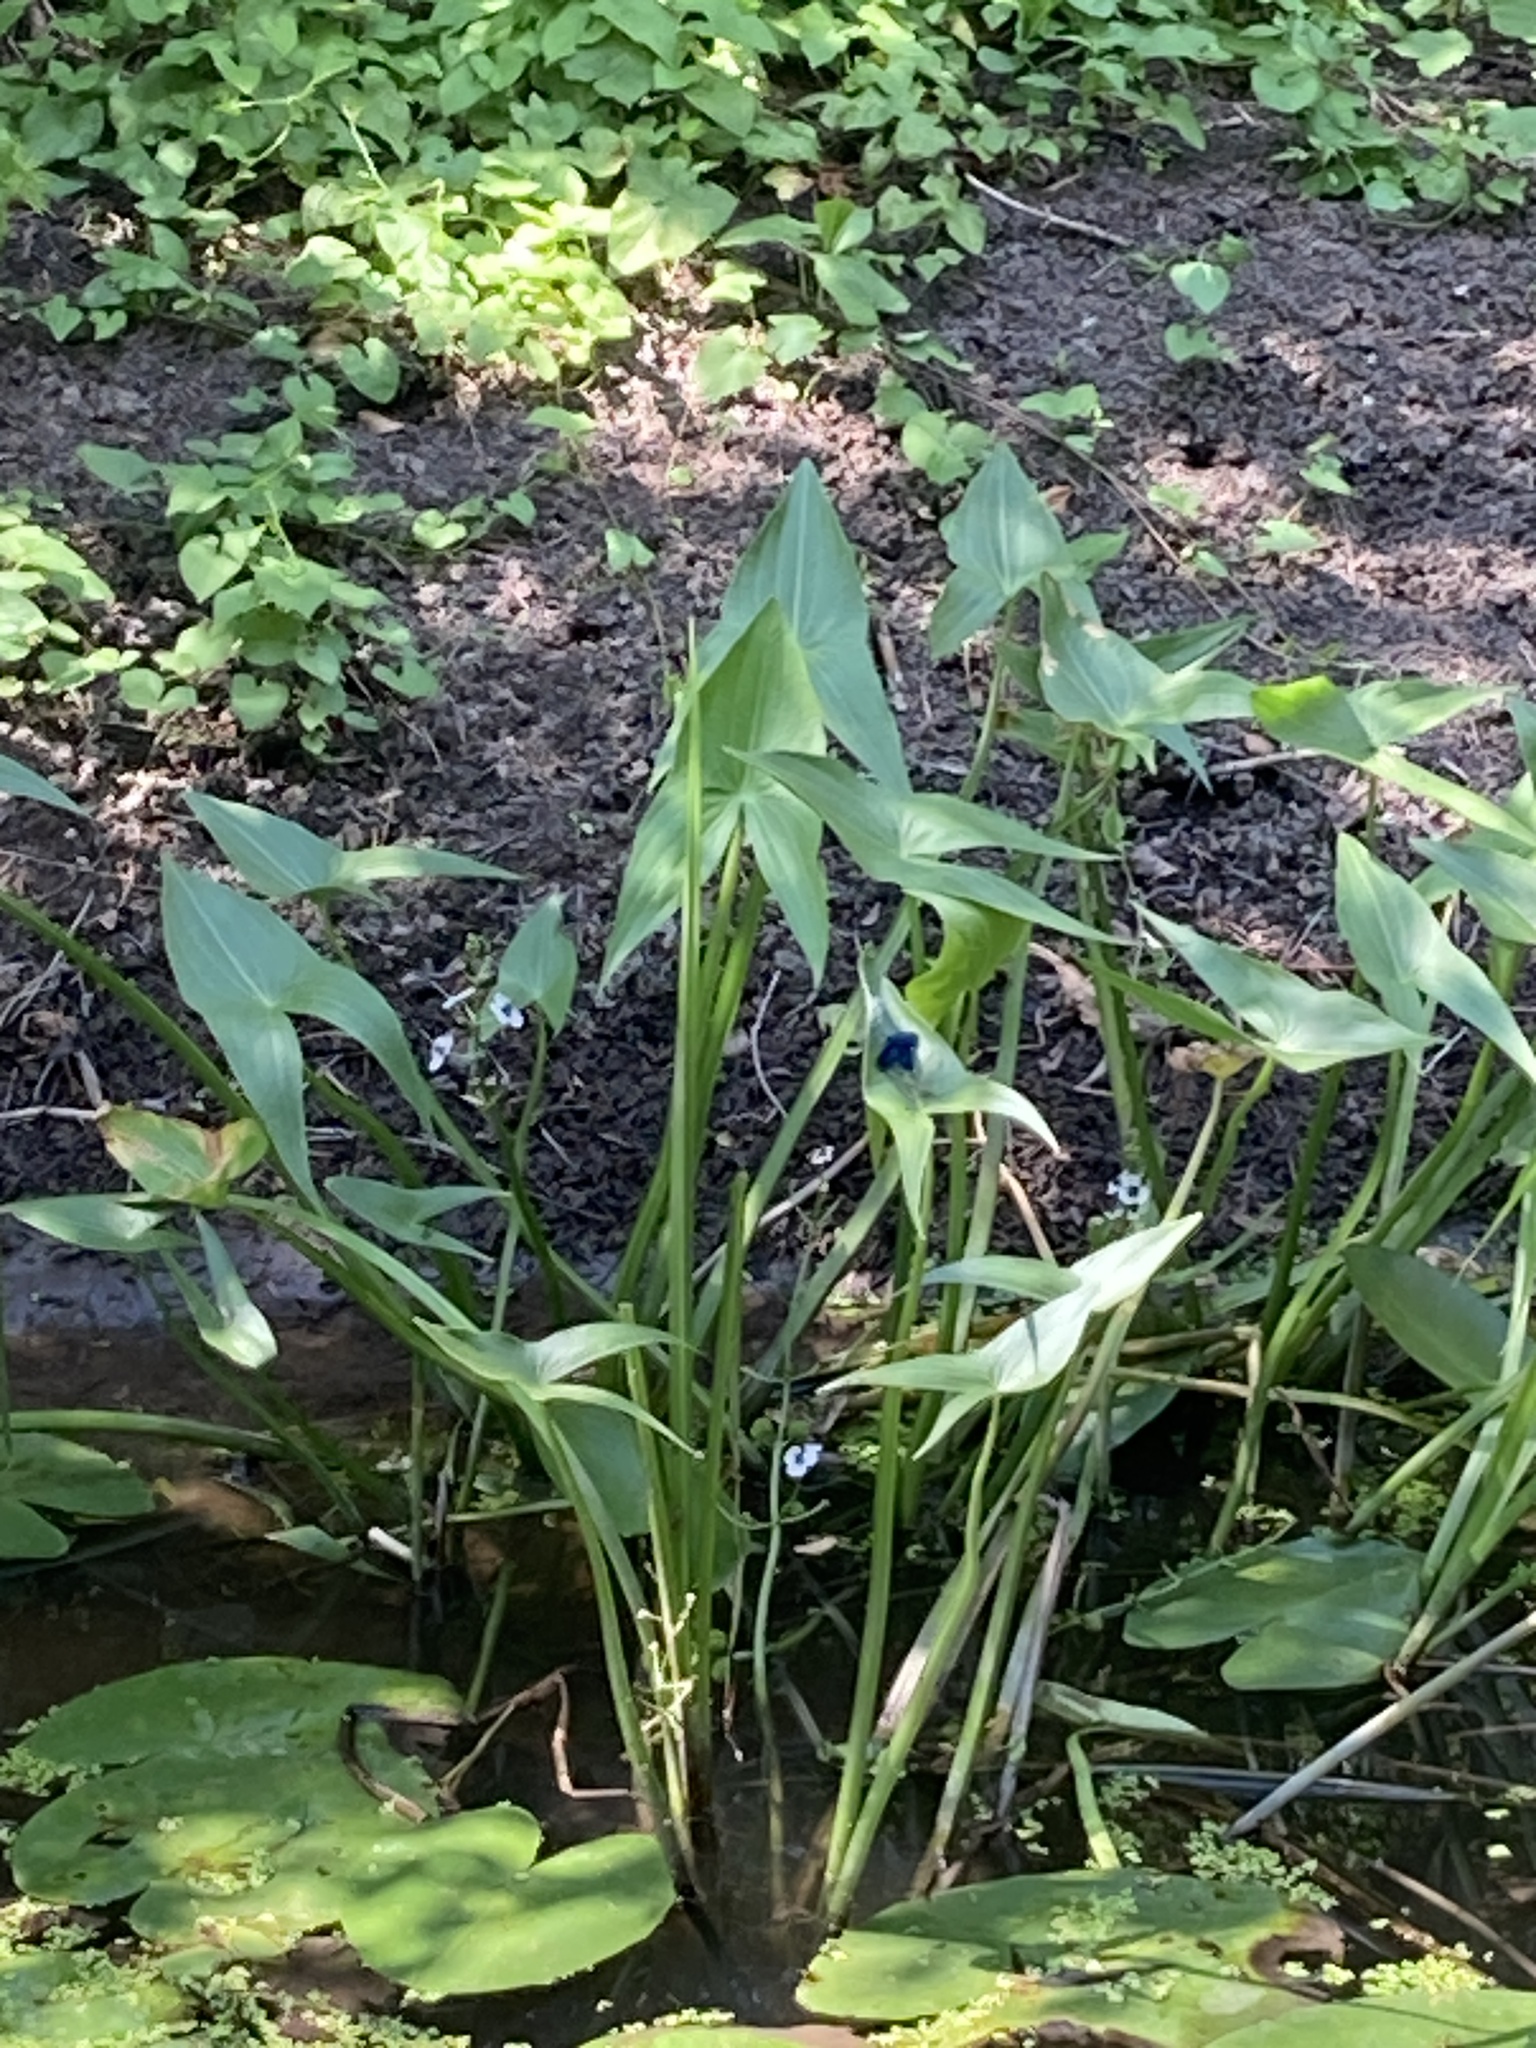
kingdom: Plantae
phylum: Tracheophyta
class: Liliopsida
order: Alismatales
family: Alismataceae
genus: Sagittaria
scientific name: Sagittaria sagittifolia
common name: Arrowhead
